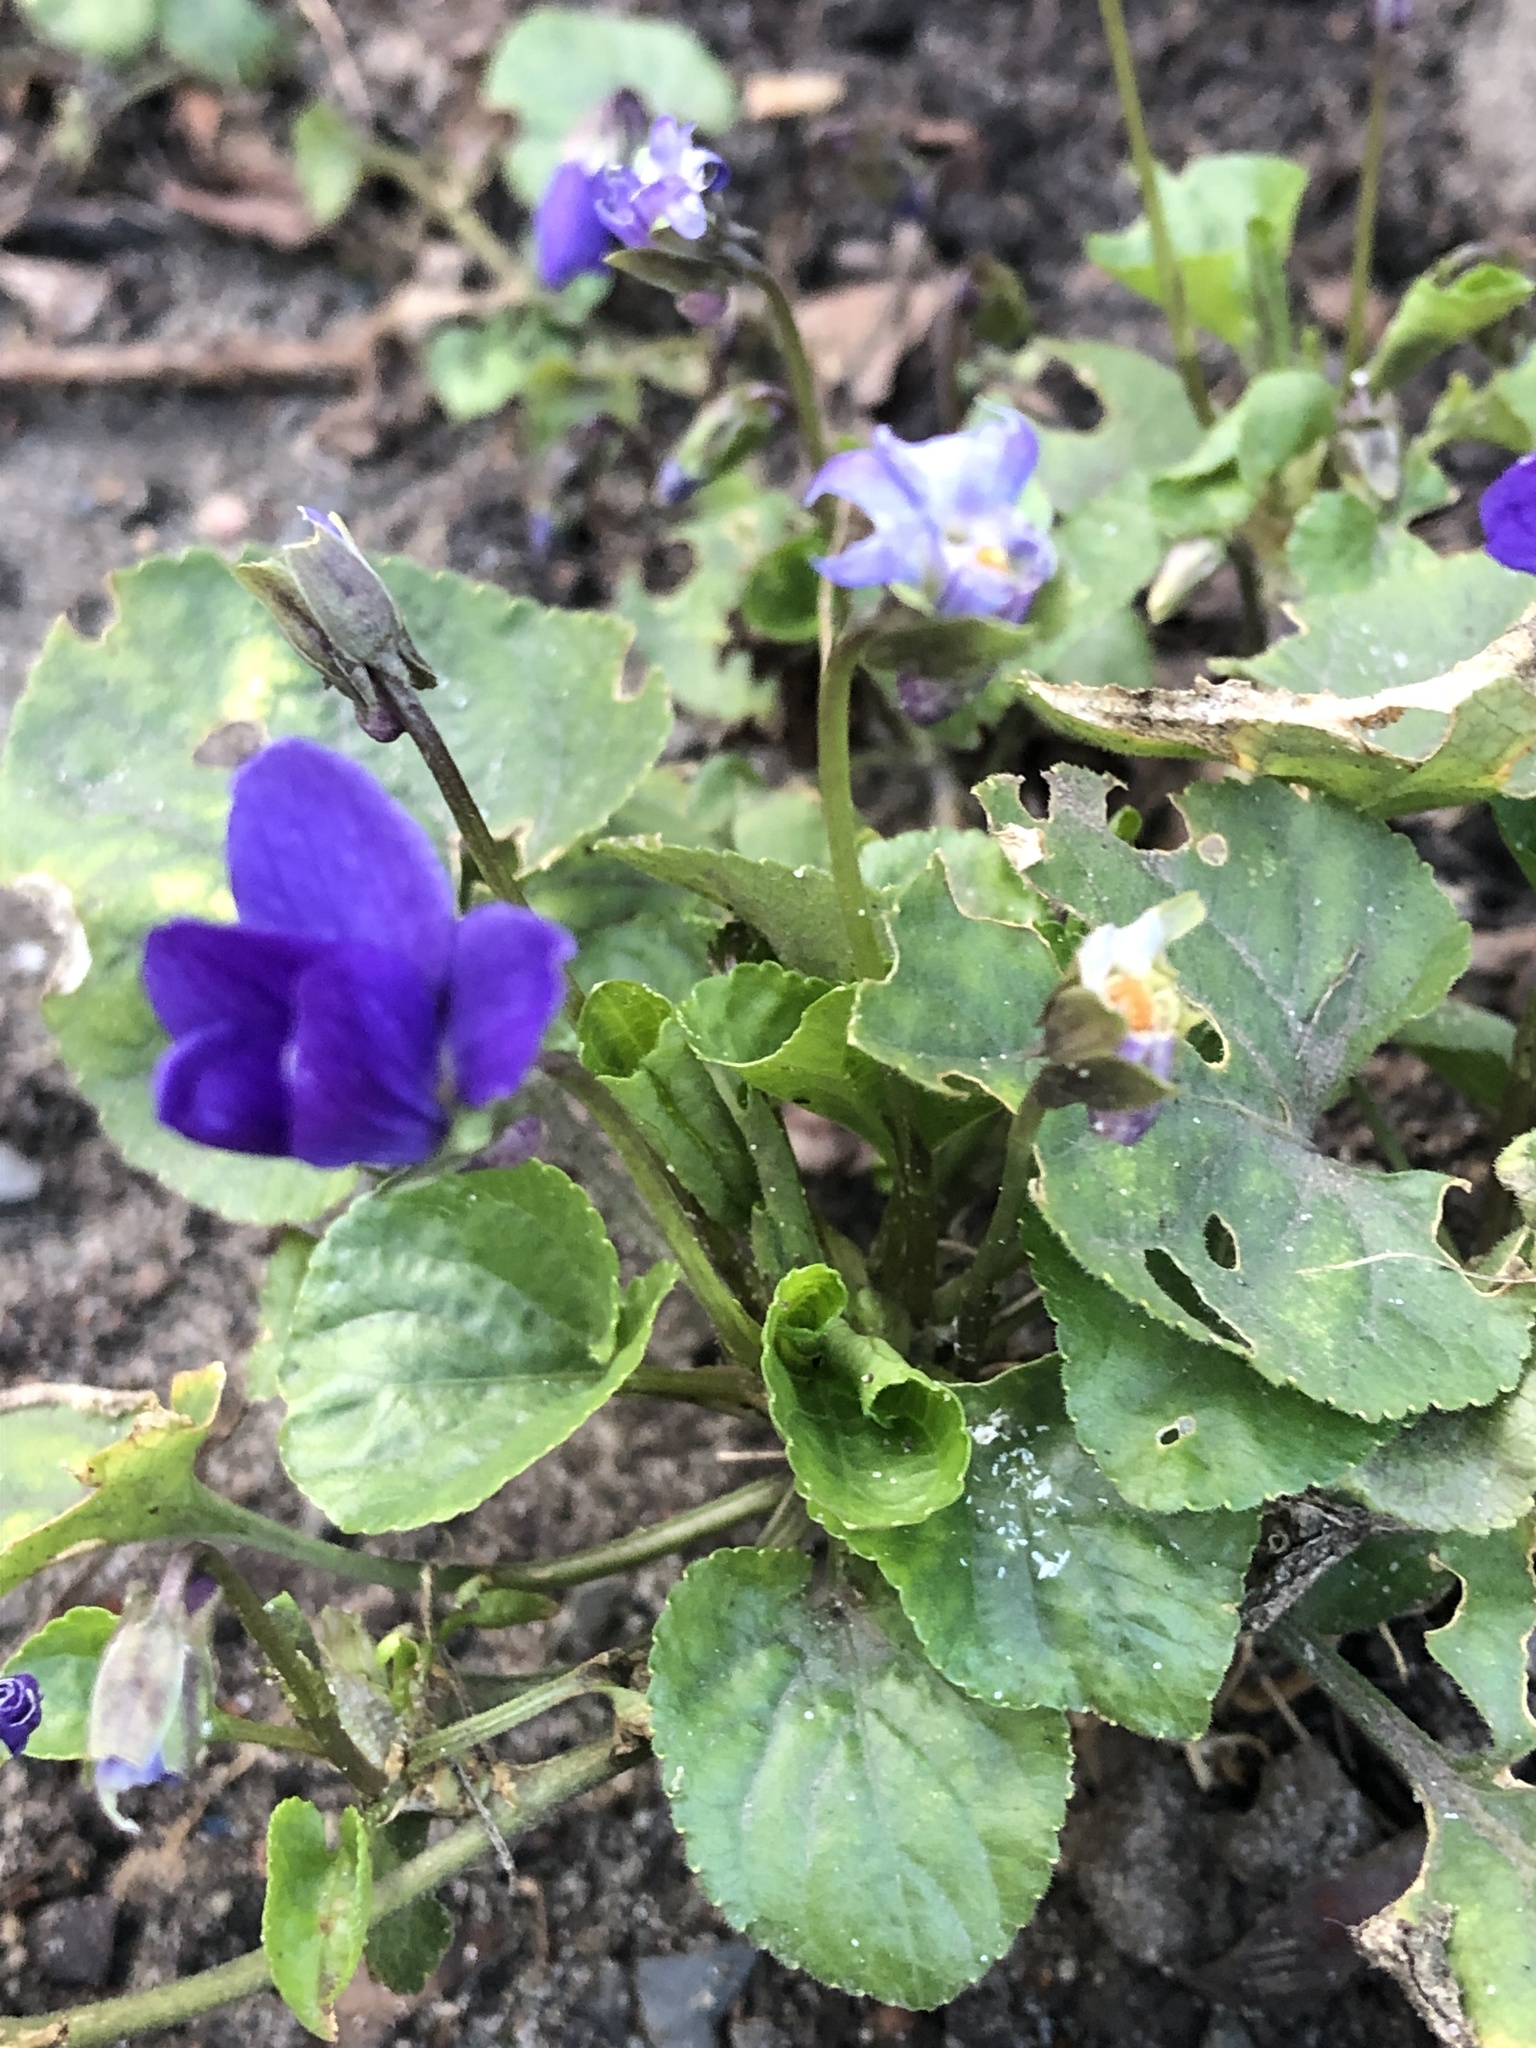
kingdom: Plantae
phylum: Tracheophyta
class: Magnoliopsida
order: Malpighiales
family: Violaceae
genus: Viola
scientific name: Viola odorata
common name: Sweet violet
